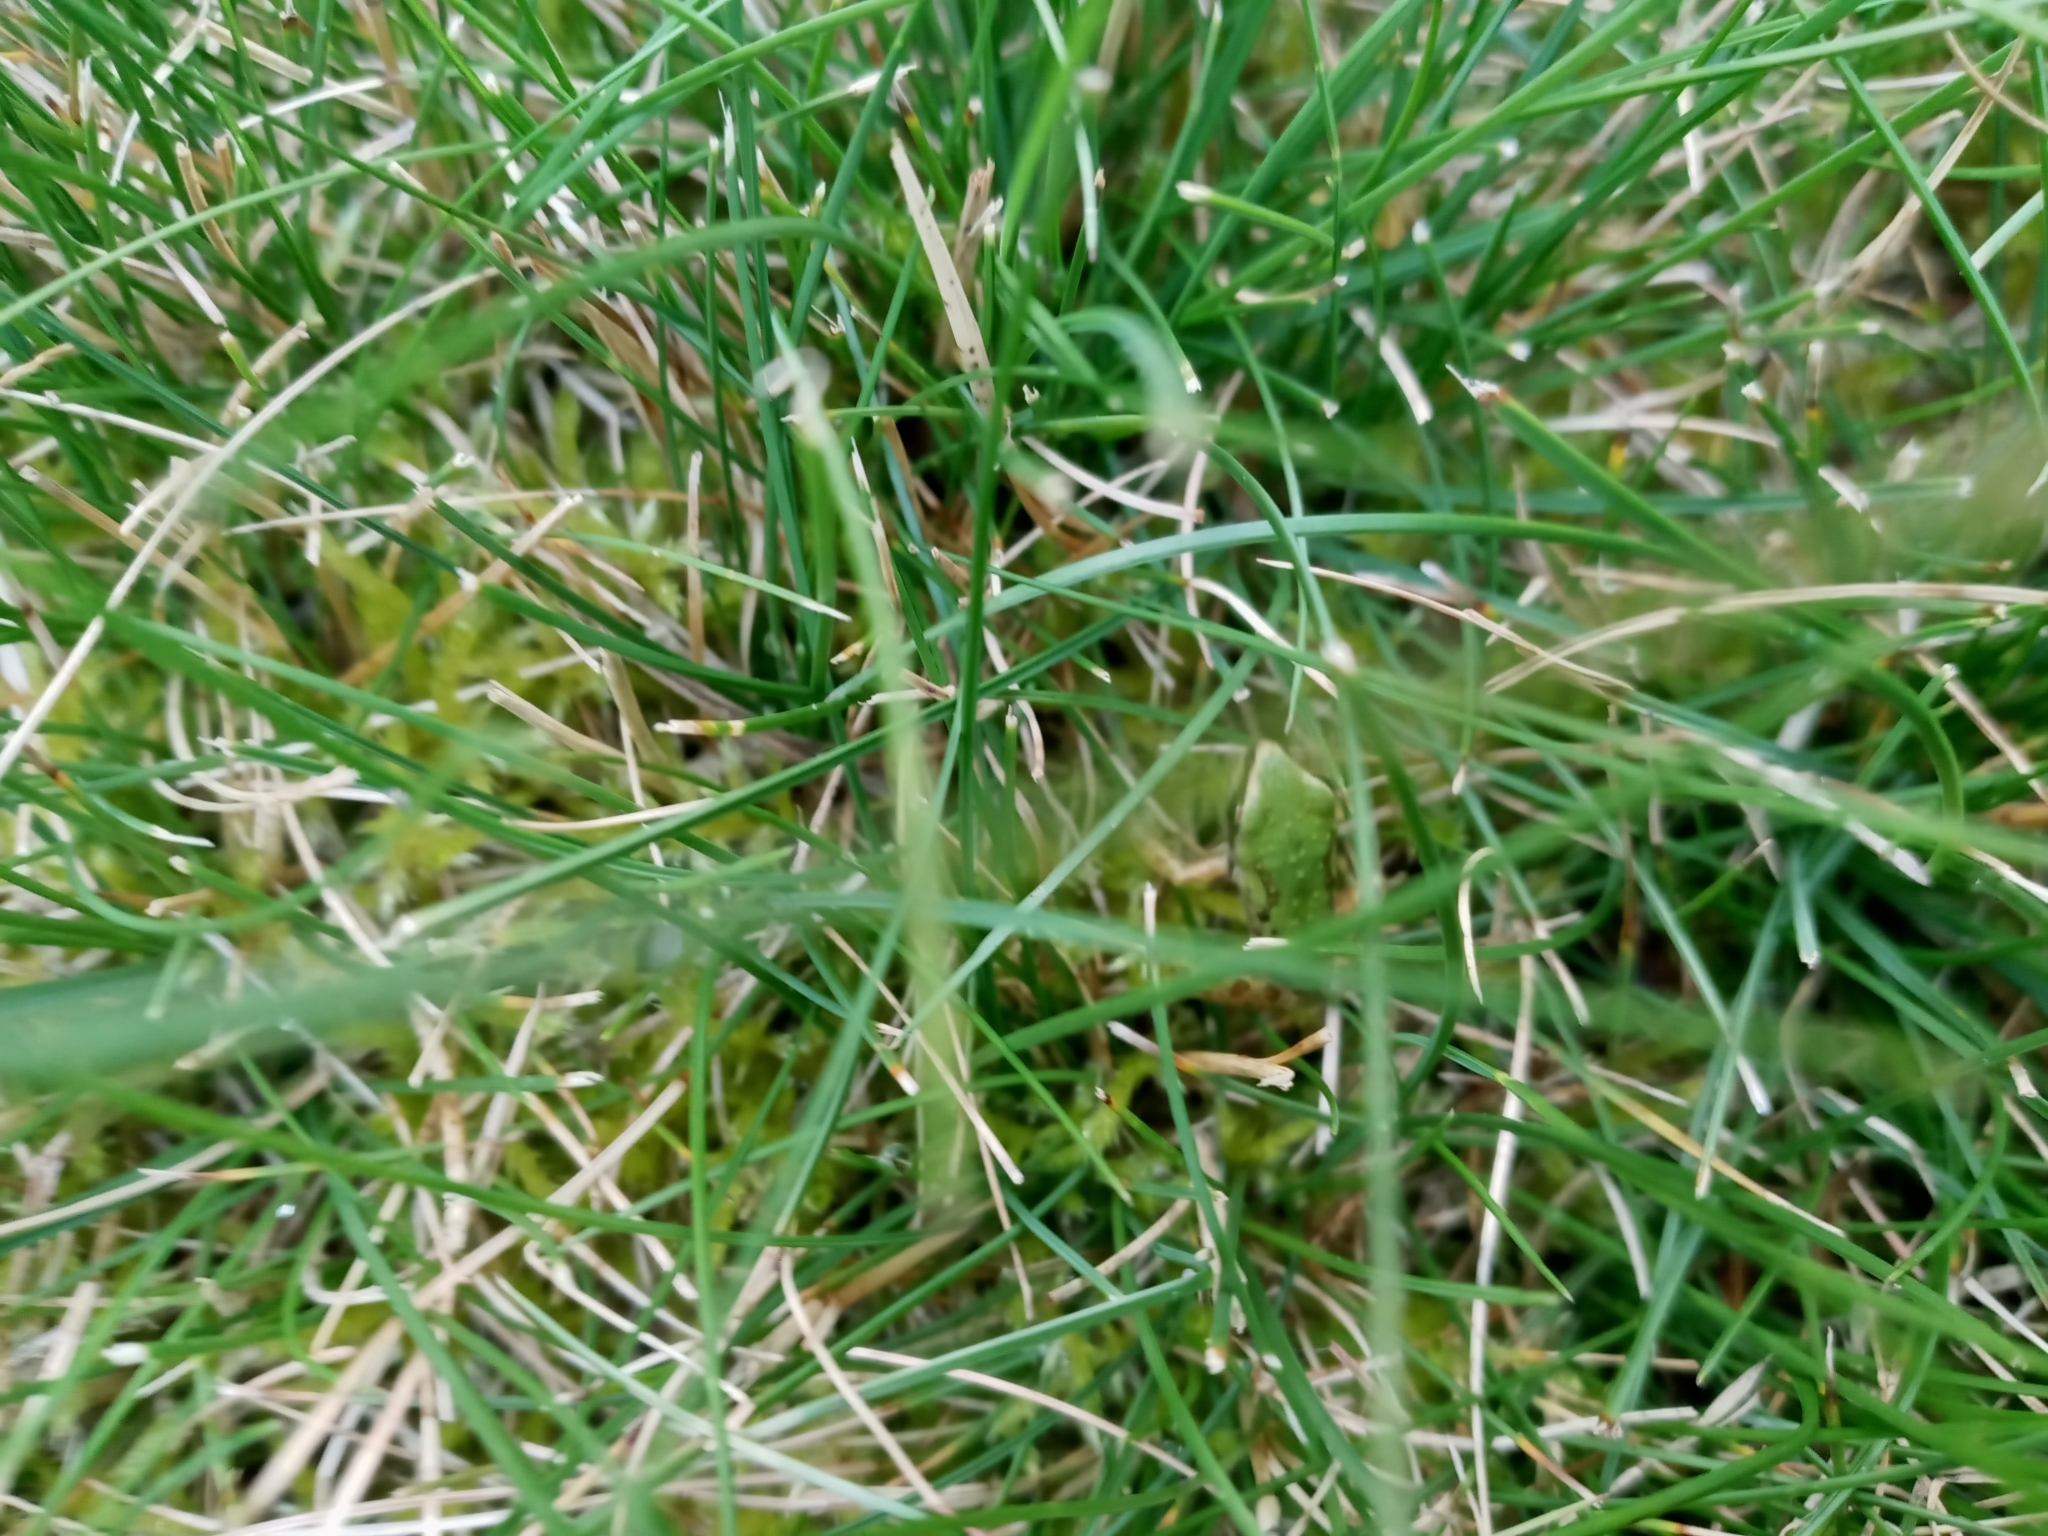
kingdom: Animalia
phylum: Chordata
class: Amphibia
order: Anura
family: Hylidae
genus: Pseudacris
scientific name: Pseudacris regilla
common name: Pacific chorus frog
